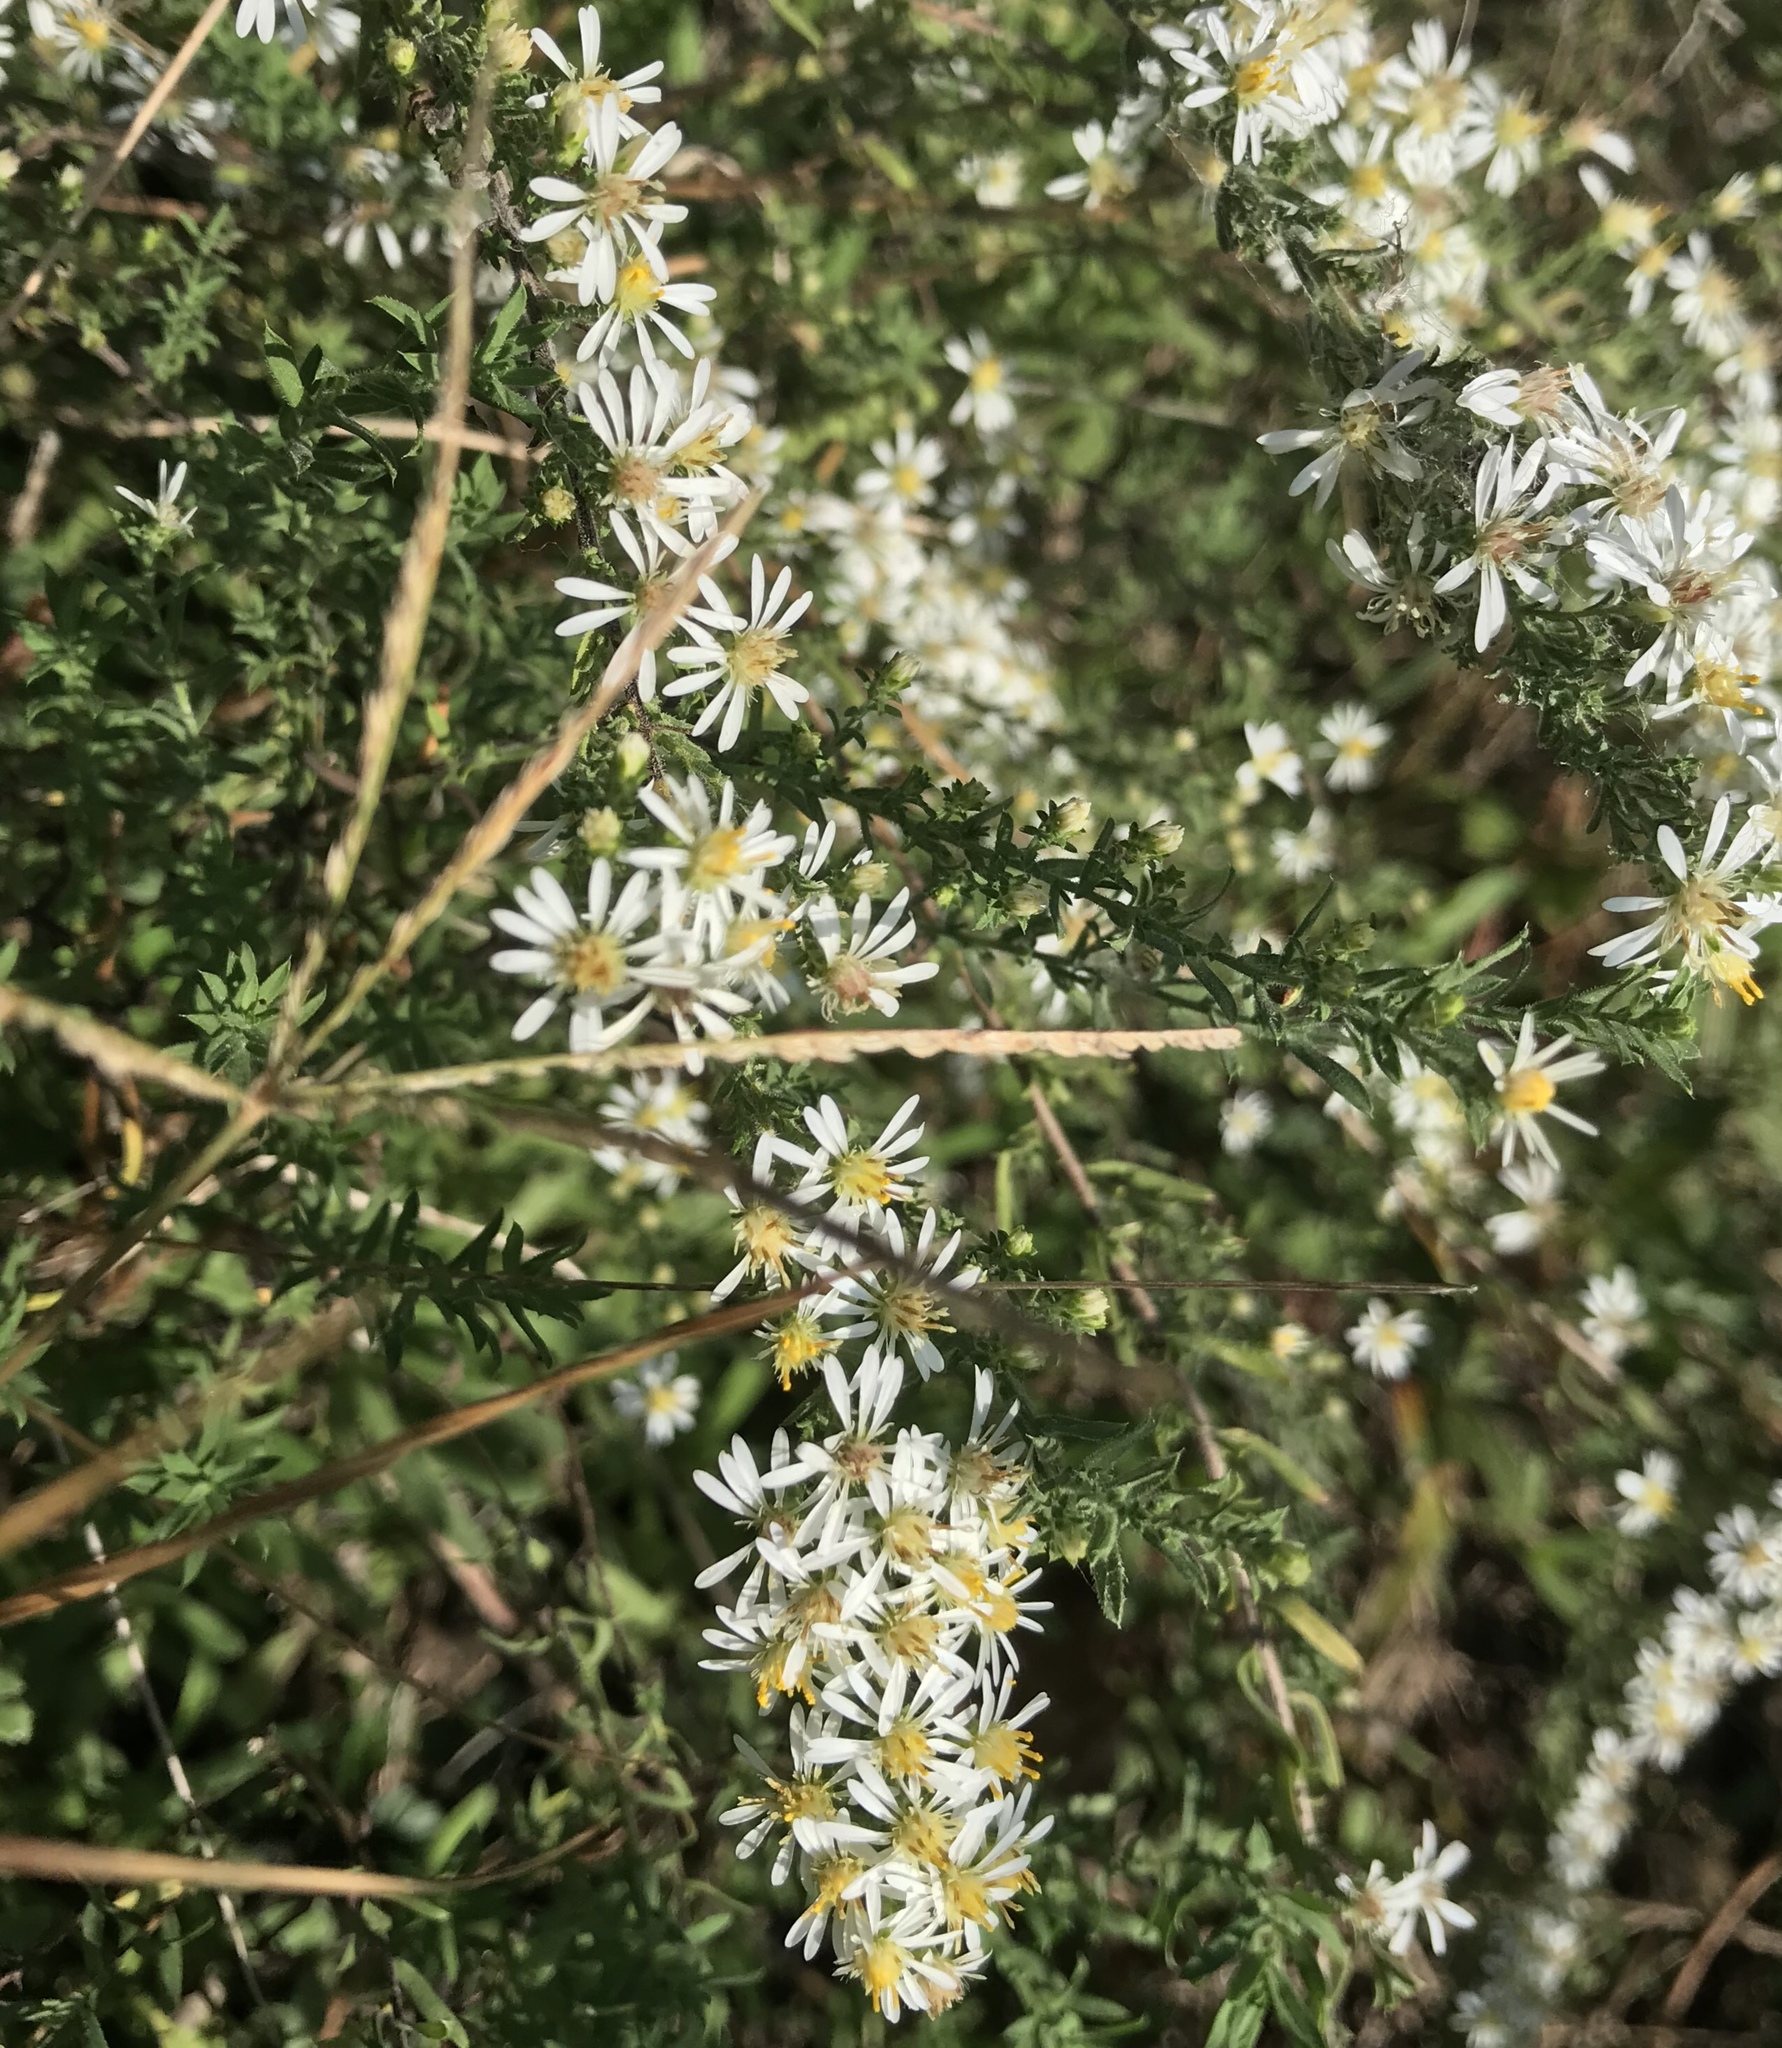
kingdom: Plantae
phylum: Tracheophyta
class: Magnoliopsida
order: Asterales
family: Asteraceae
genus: Symphyotrichum
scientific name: Symphyotrichum ericoides
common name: Heath aster
